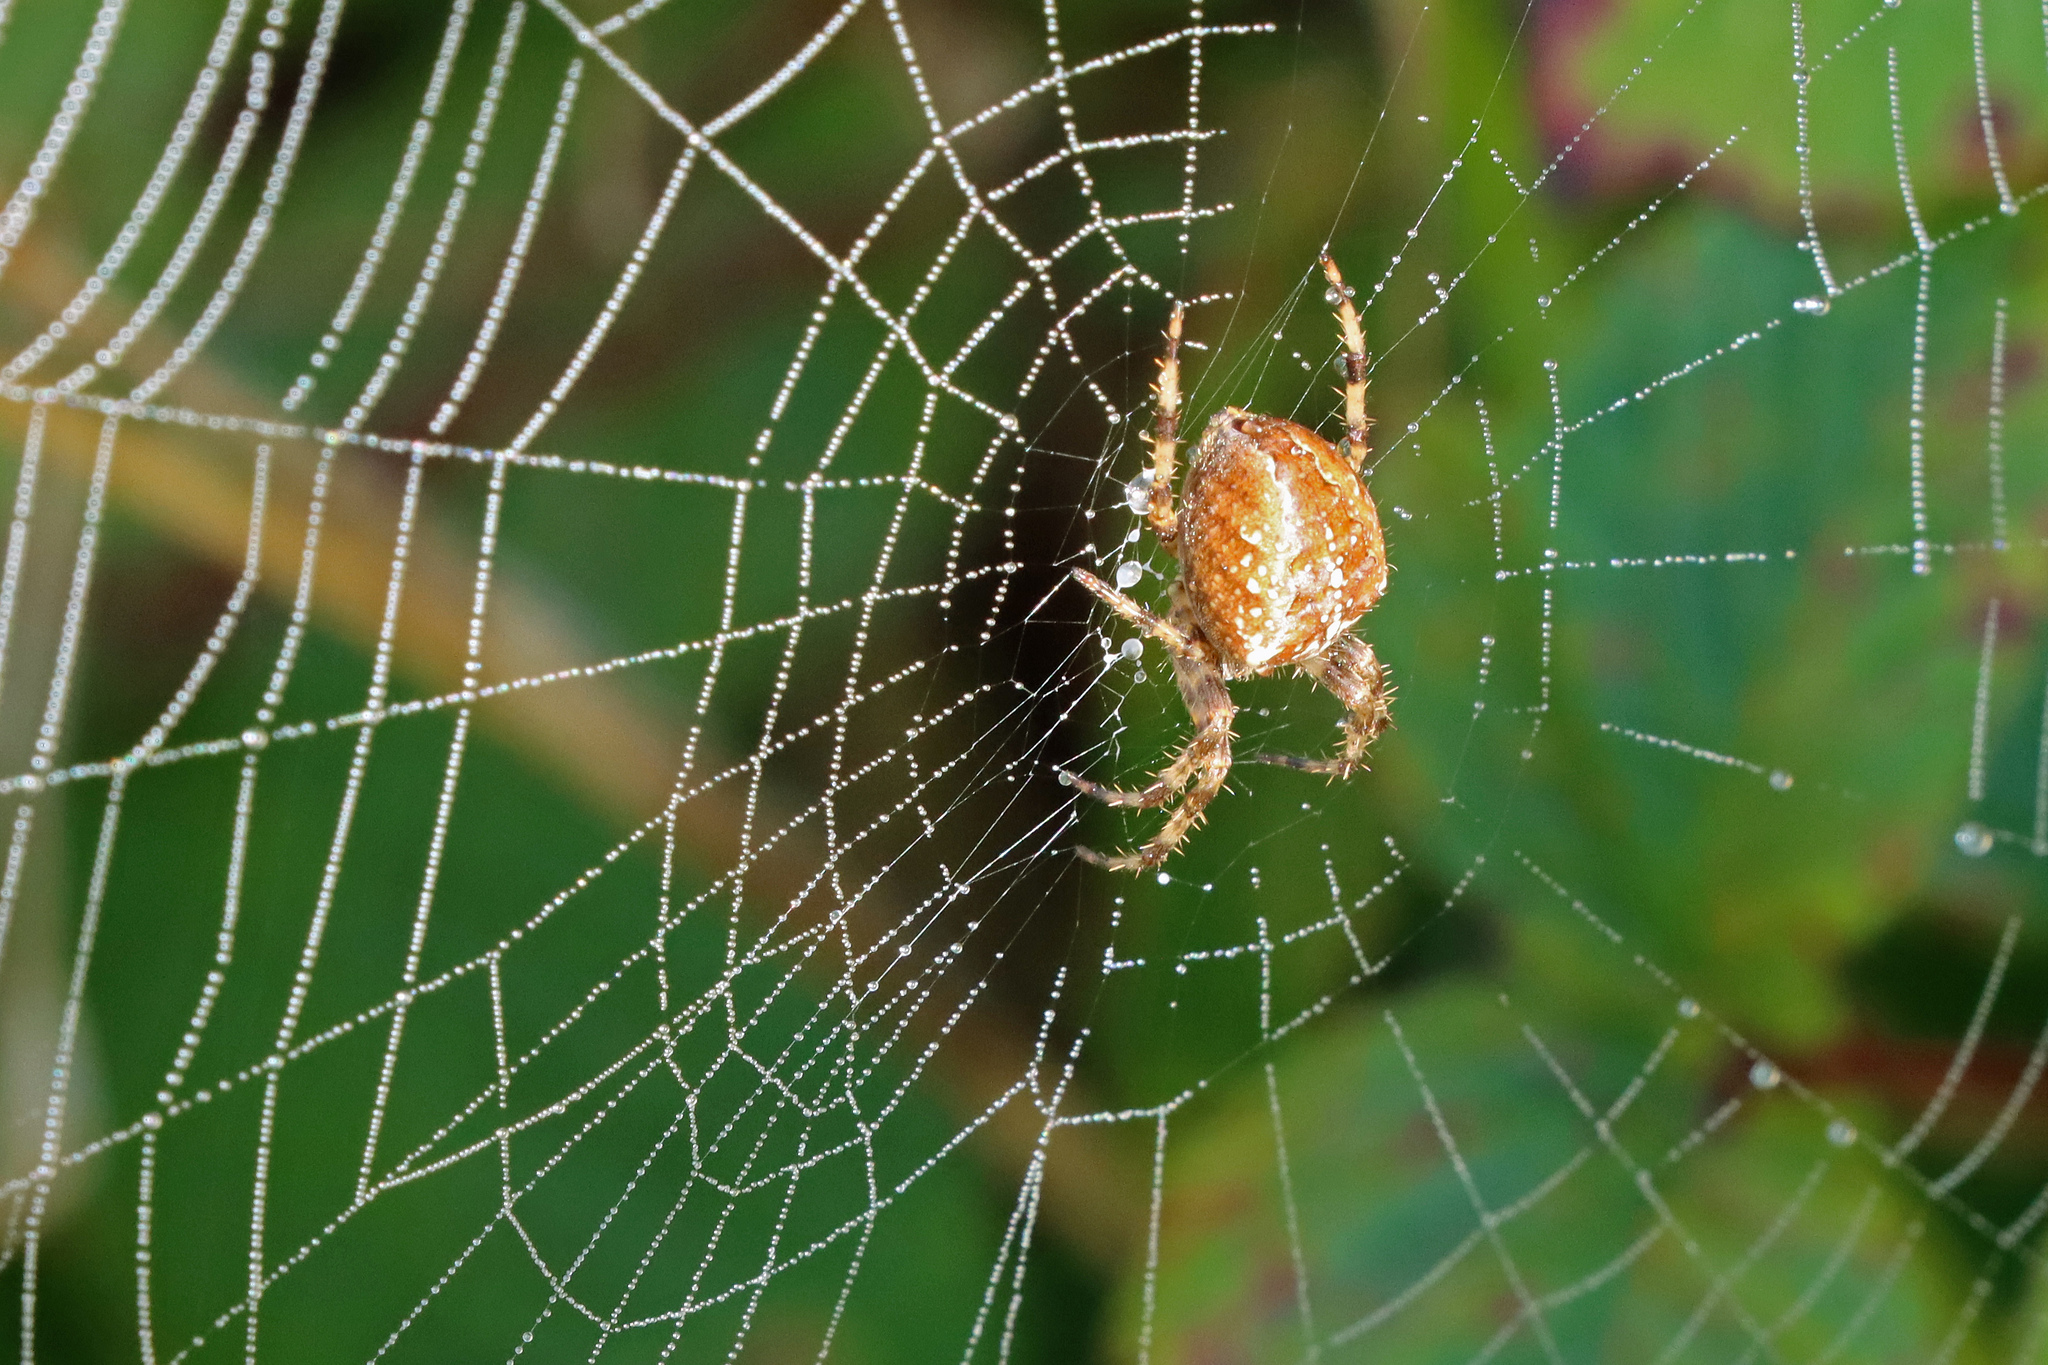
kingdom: Animalia
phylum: Arthropoda
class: Arachnida
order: Araneae
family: Araneidae
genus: Araneus
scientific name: Araneus diadematus
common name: Cross orbweaver
